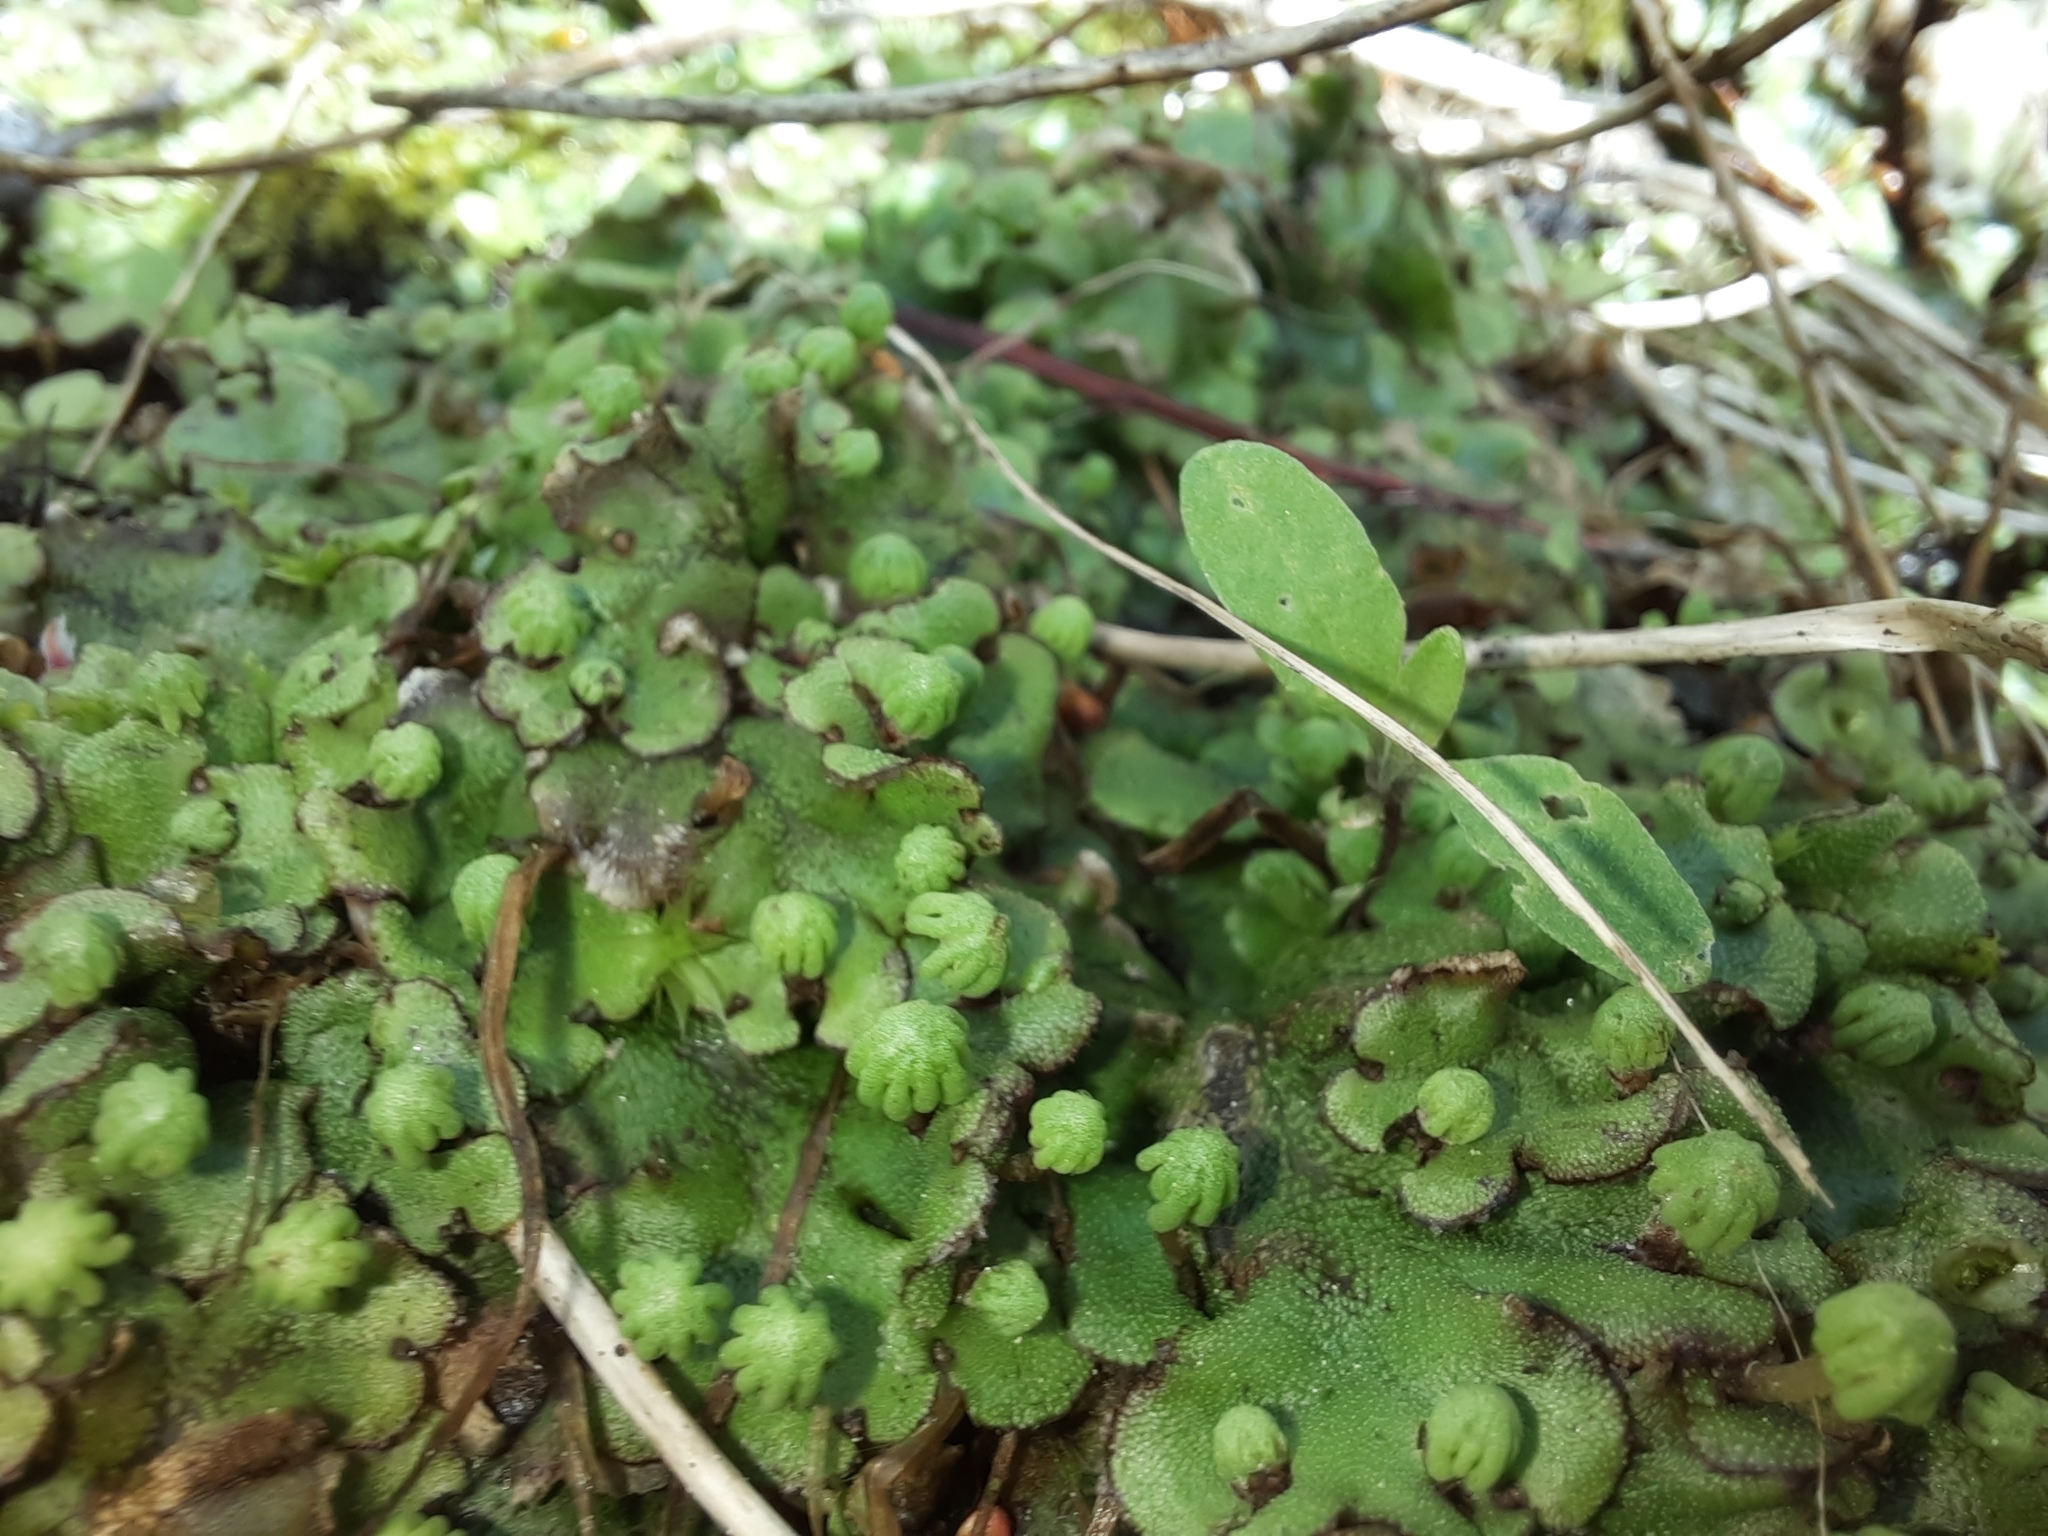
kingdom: Plantae
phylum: Marchantiophyta
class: Marchantiopsida
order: Marchantiales
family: Marchantiaceae
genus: Marchantia
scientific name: Marchantia polymorpha
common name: Common liverwort
